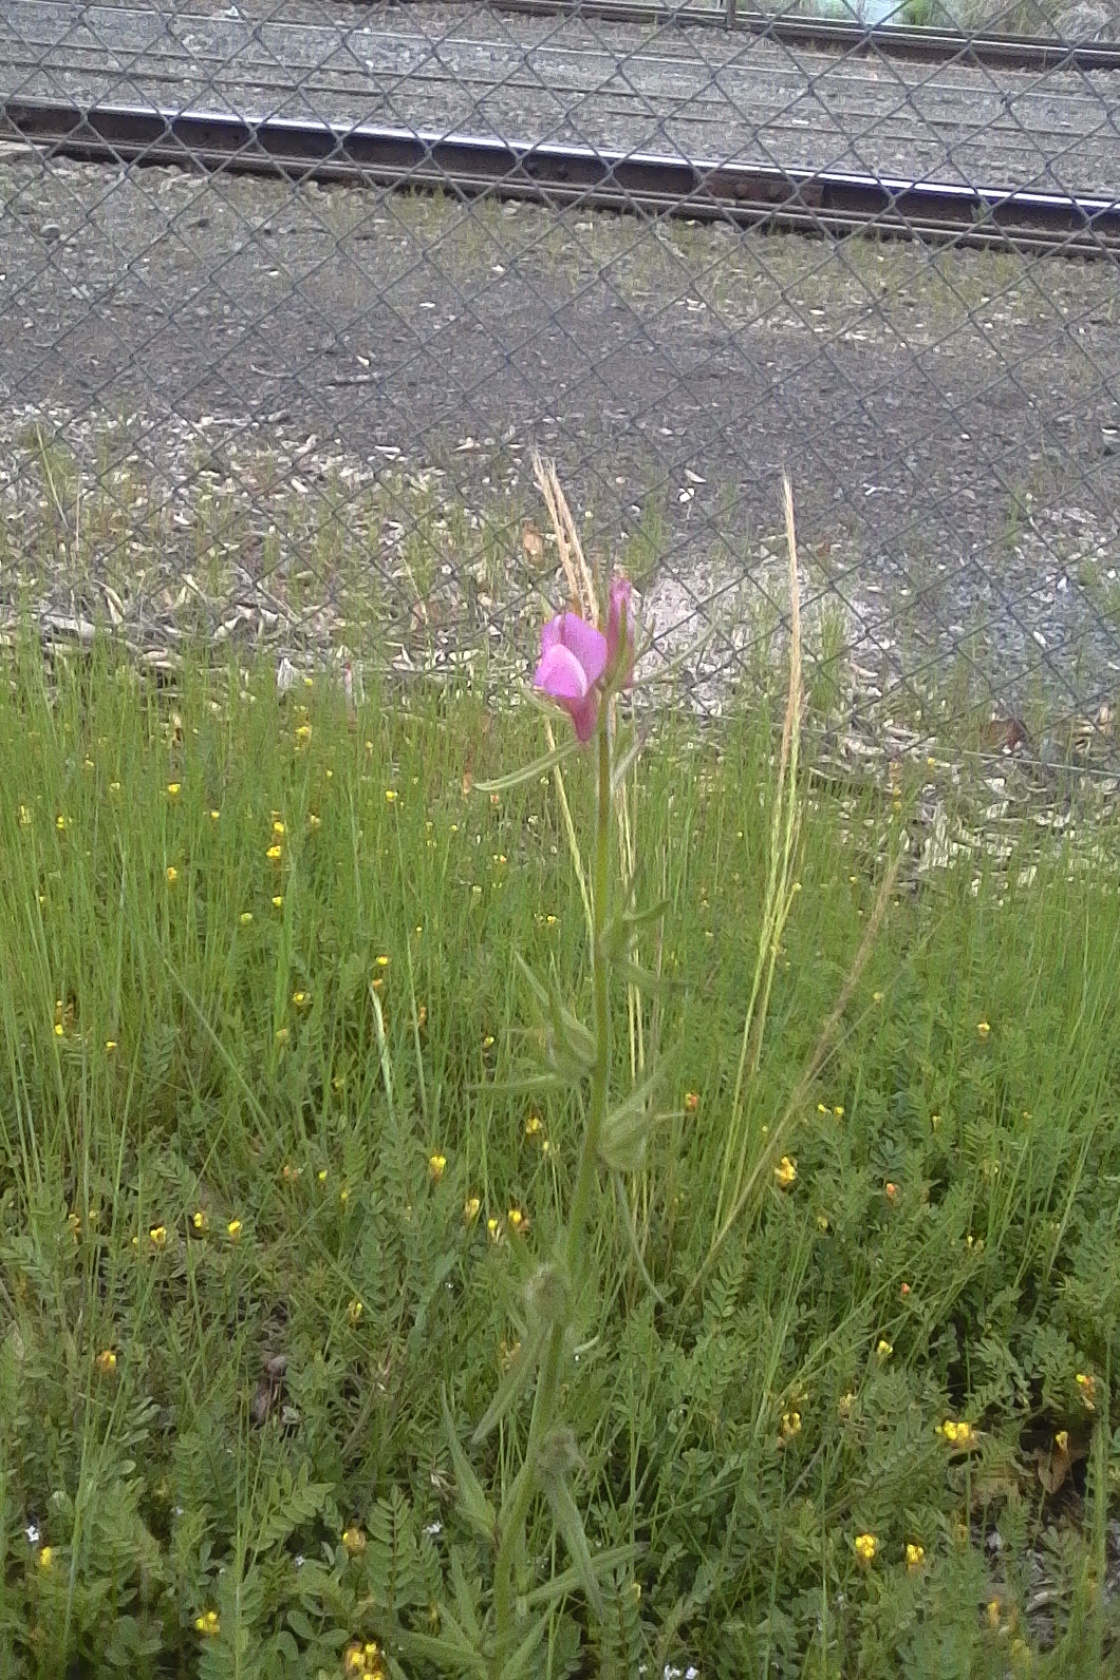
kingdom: Plantae
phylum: Tracheophyta
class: Magnoliopsida
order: Lamiales
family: Plantaginaceae
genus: Misopates
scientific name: Misopates orontium
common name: Weasel's-snout
